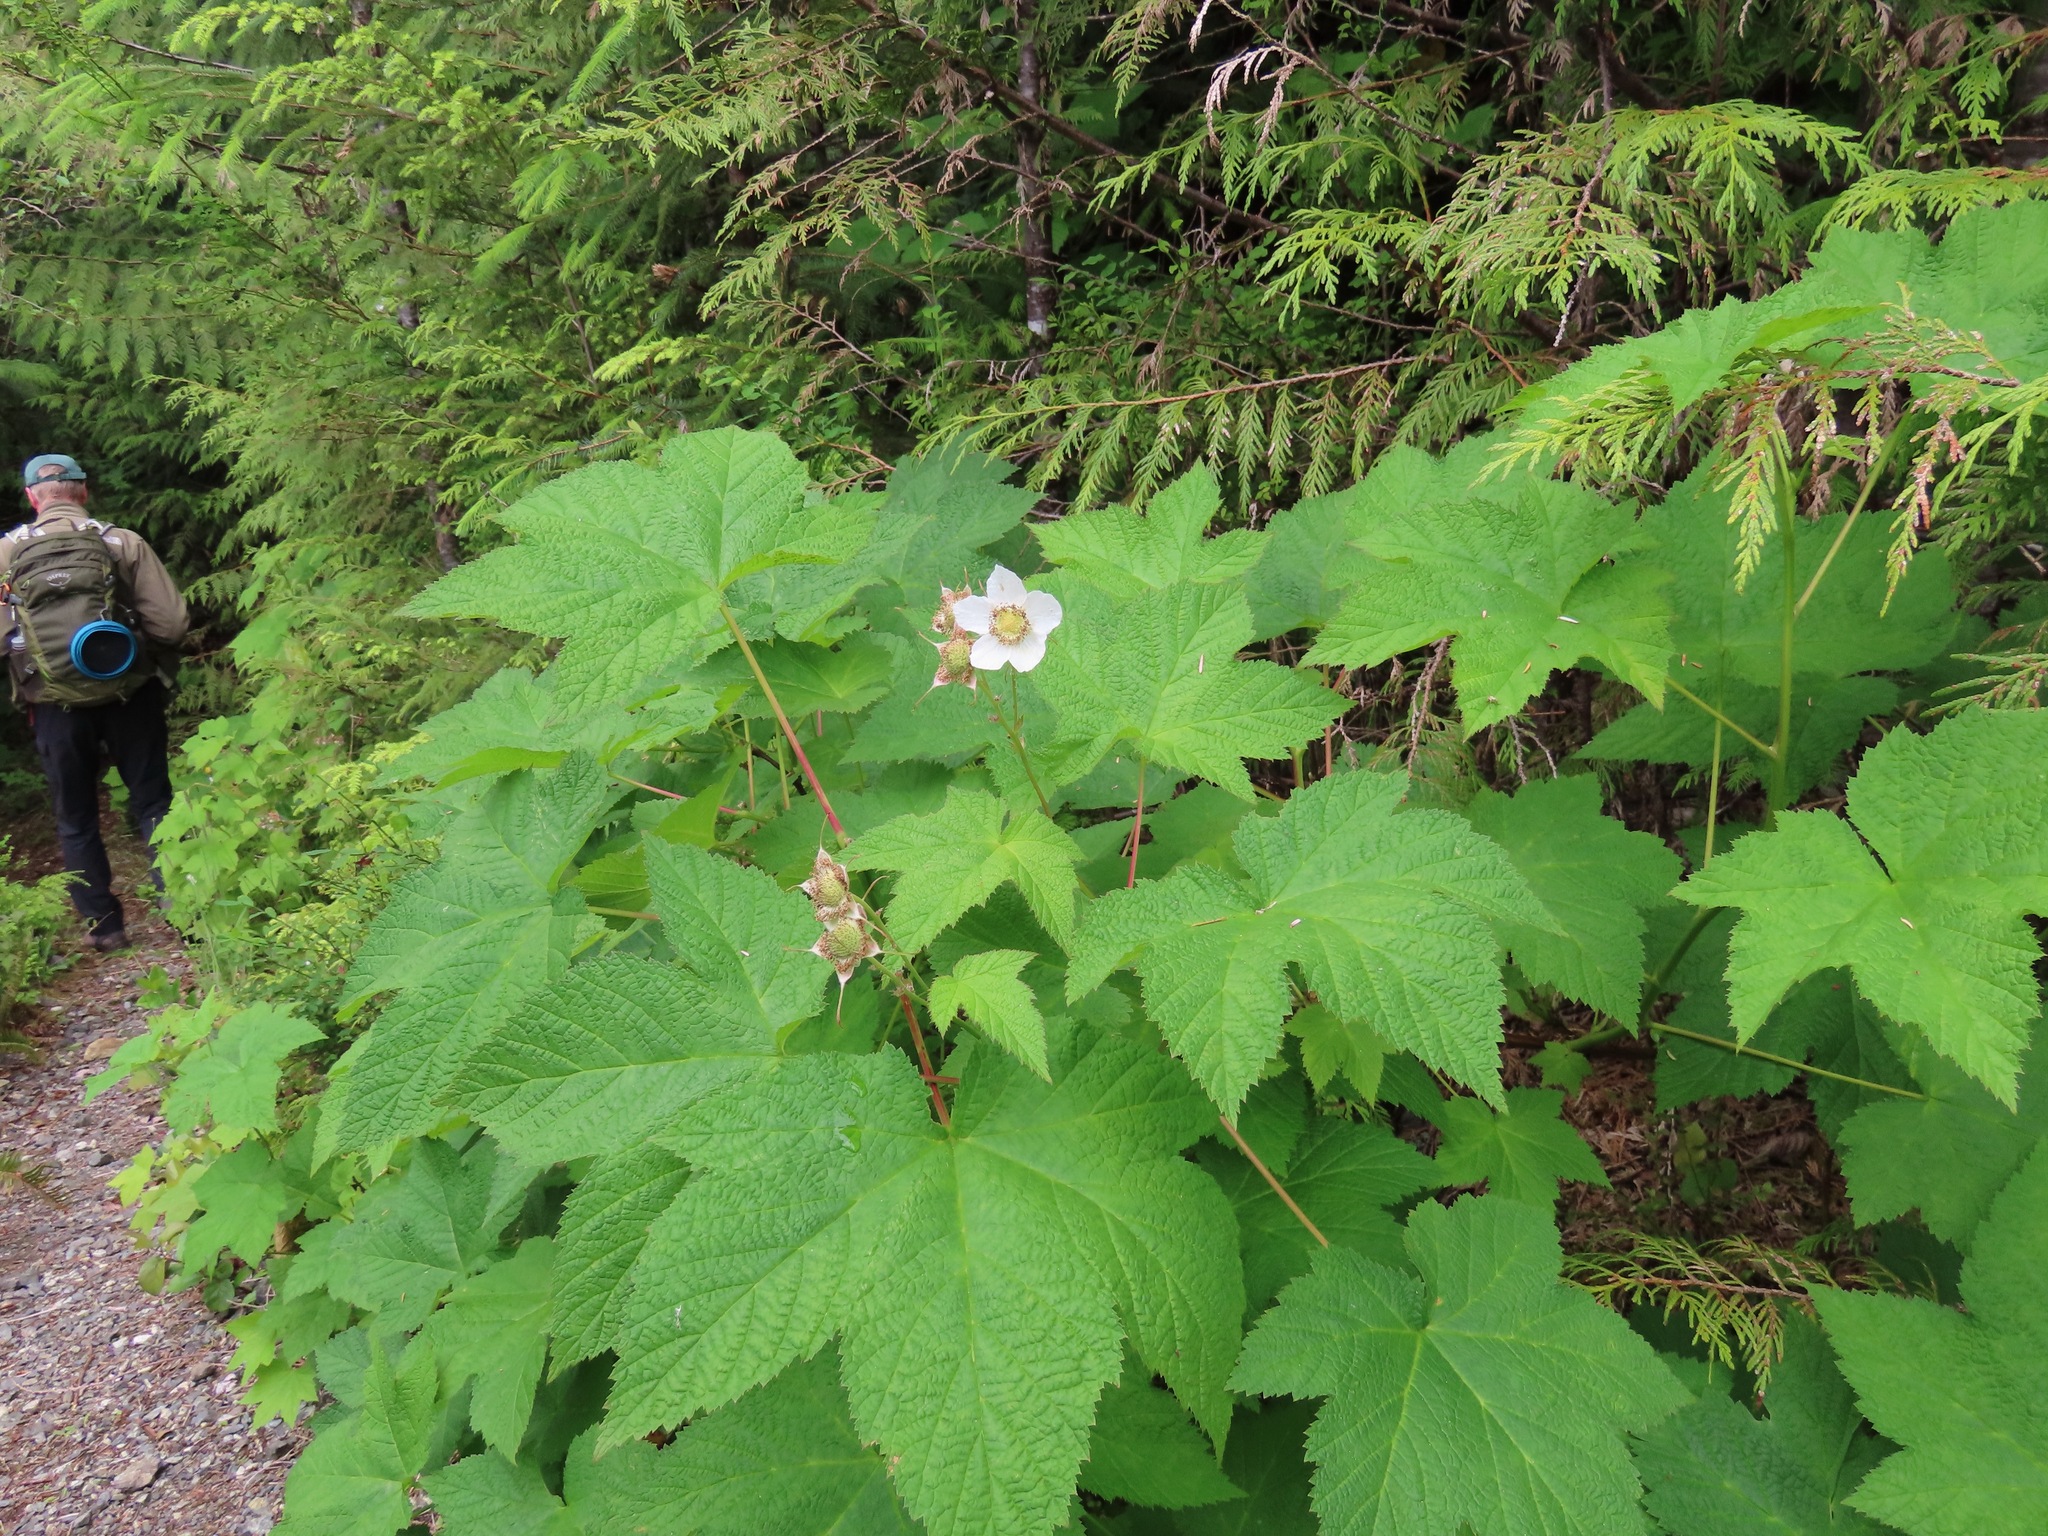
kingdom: Plantae
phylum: Tracheophyta
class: Magnoliopsida
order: Rosales
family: Rosaceae
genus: Rubus
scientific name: Rubus parviflorus
